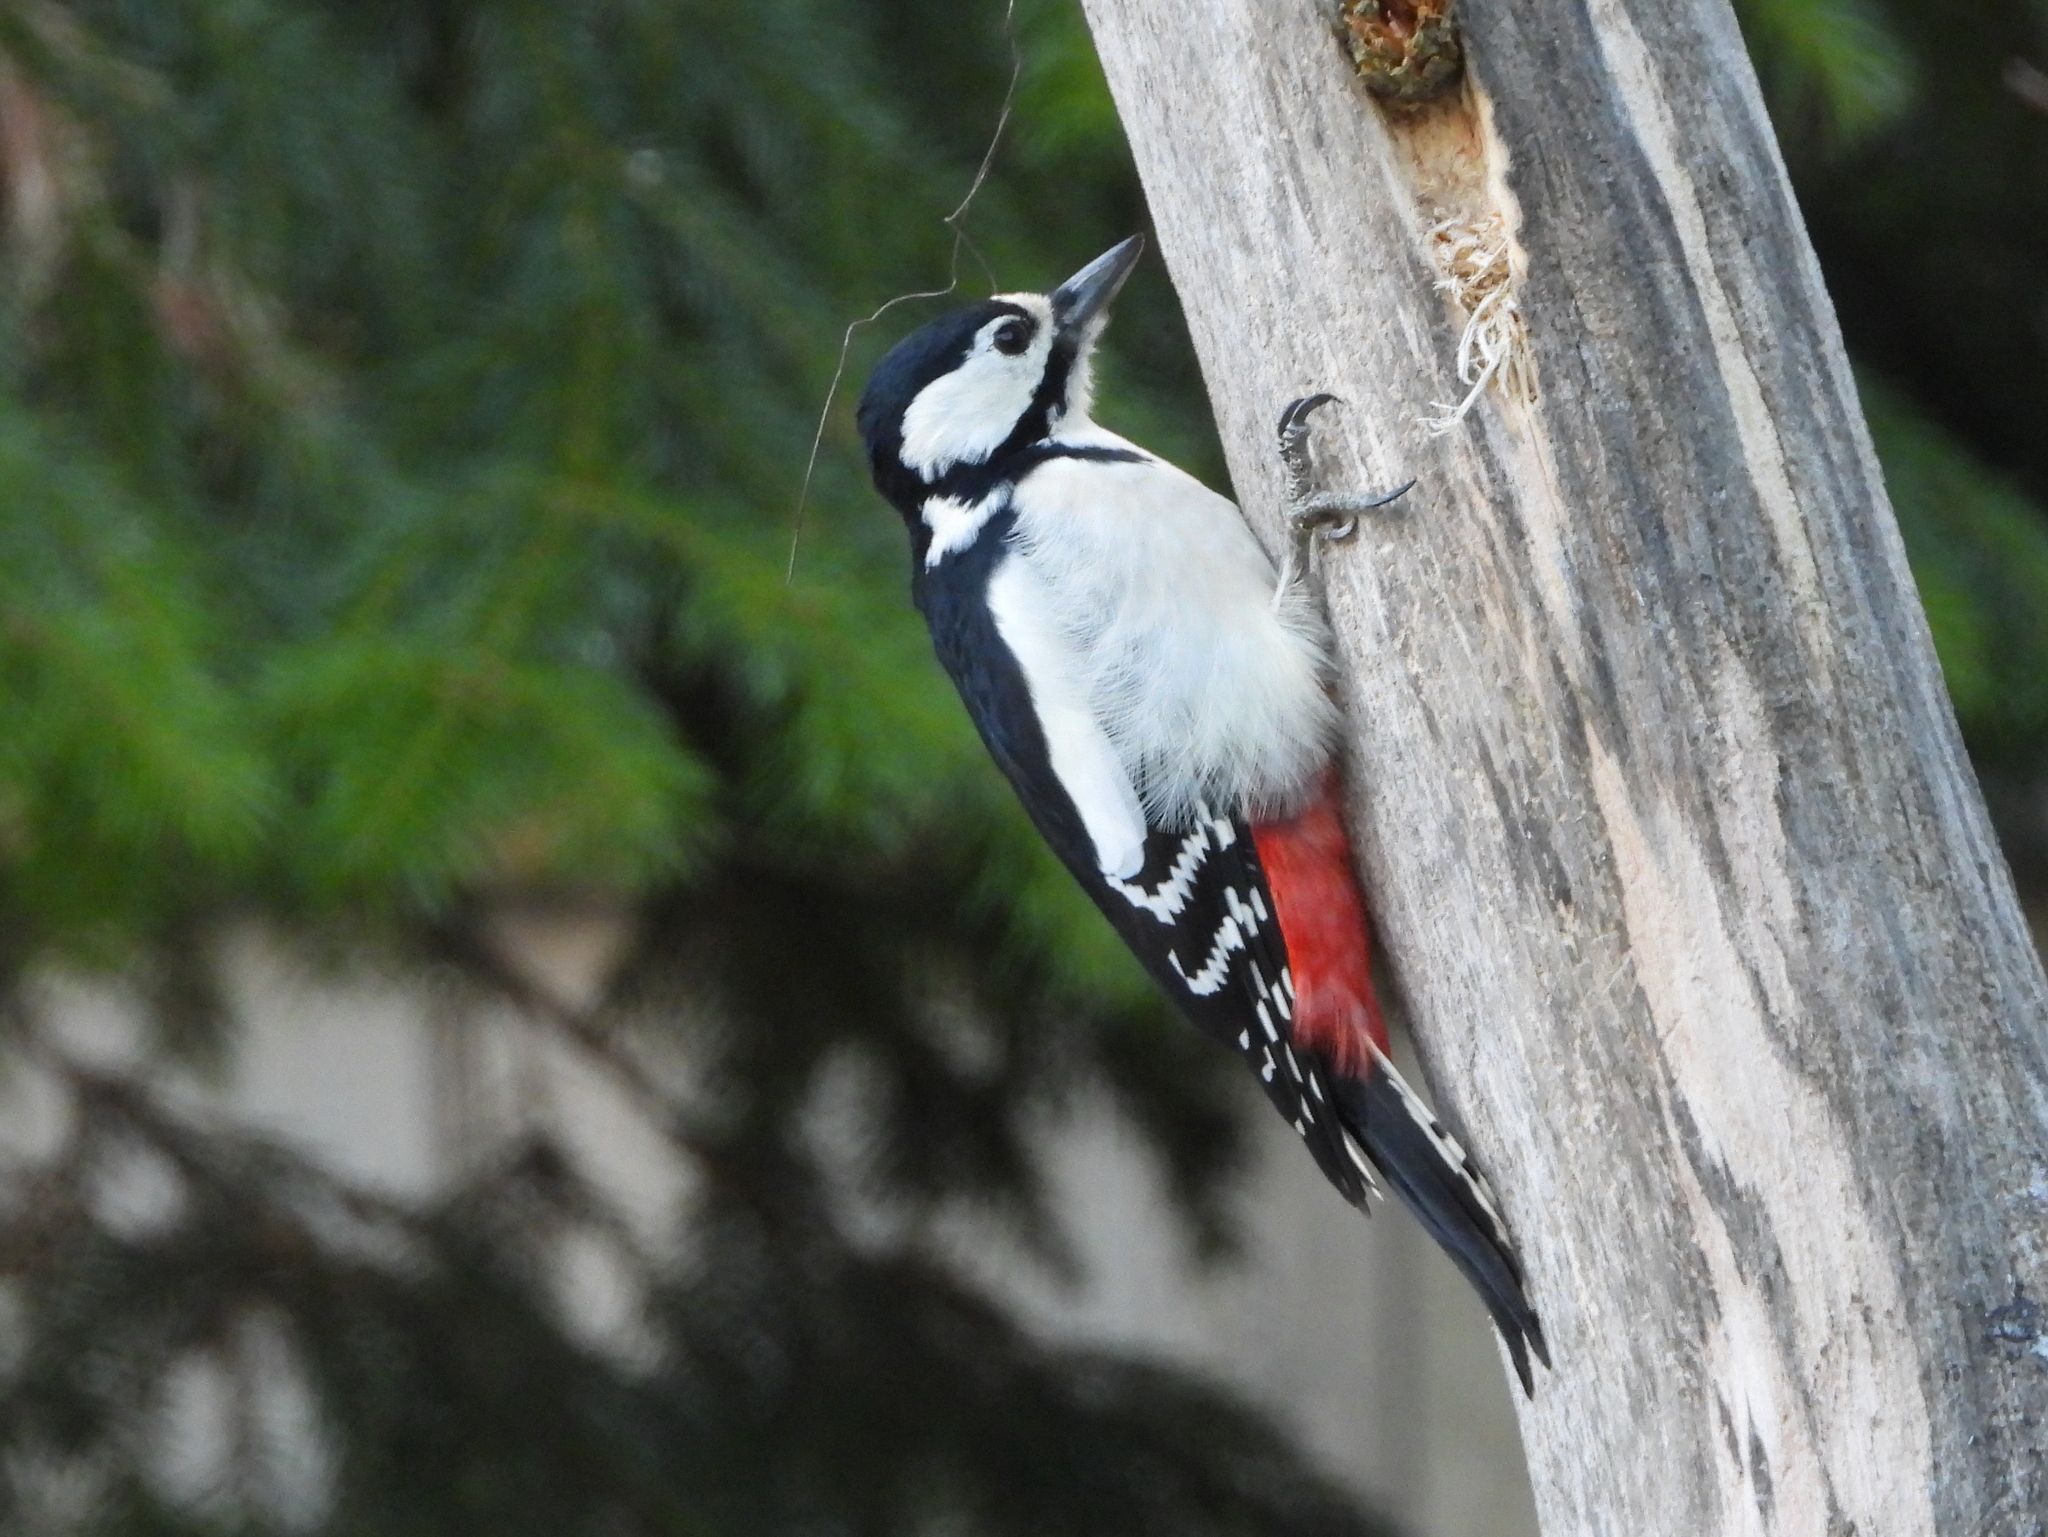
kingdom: Animalia
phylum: Chordata
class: Aves
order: Piciformes
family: Picidae
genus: Dendrocopos
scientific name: Dendrocopos major
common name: Great spotted woodpecker
